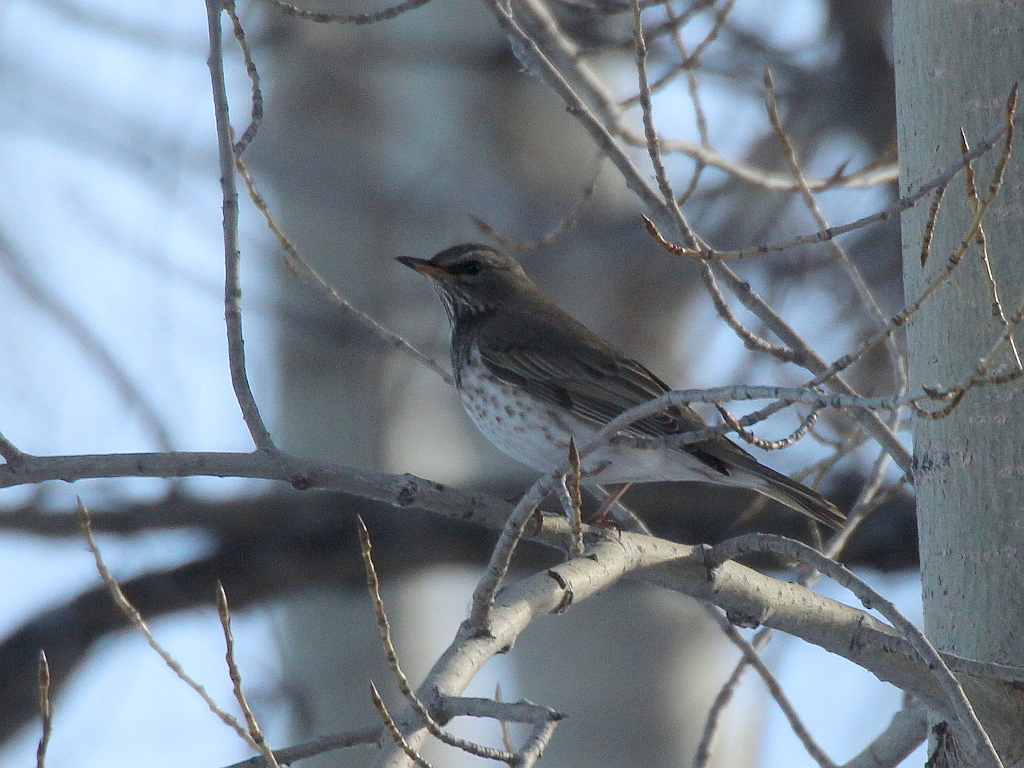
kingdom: Animalia
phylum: Chordata
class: Aves
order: Passeriformes
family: Turdidae
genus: Turdus
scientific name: Turdus atrogularis
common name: Black-throated thrush
